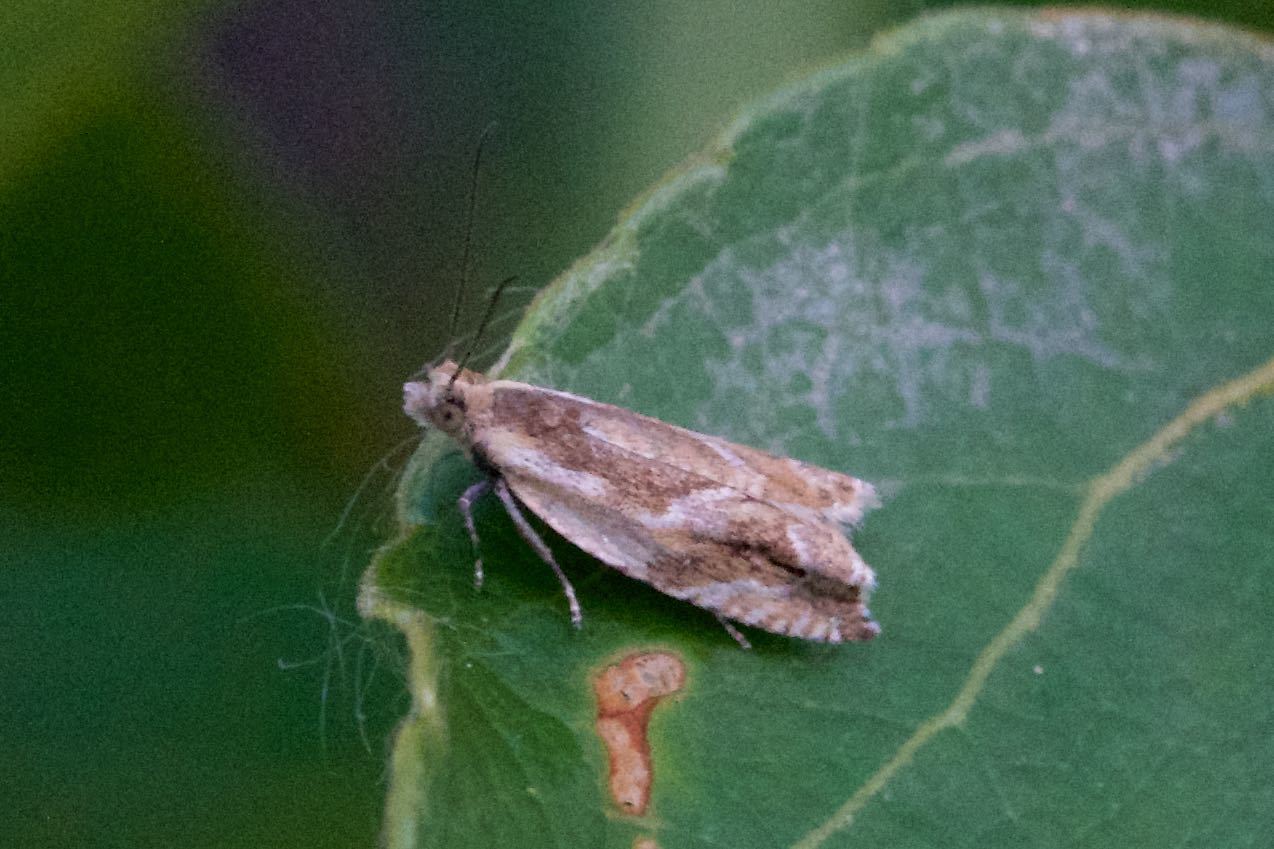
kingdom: Animalia
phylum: Arthropoda
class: Insecta
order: Lepidoptera
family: Tortricidae
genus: Ancylis
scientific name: Ancylis subaequana
